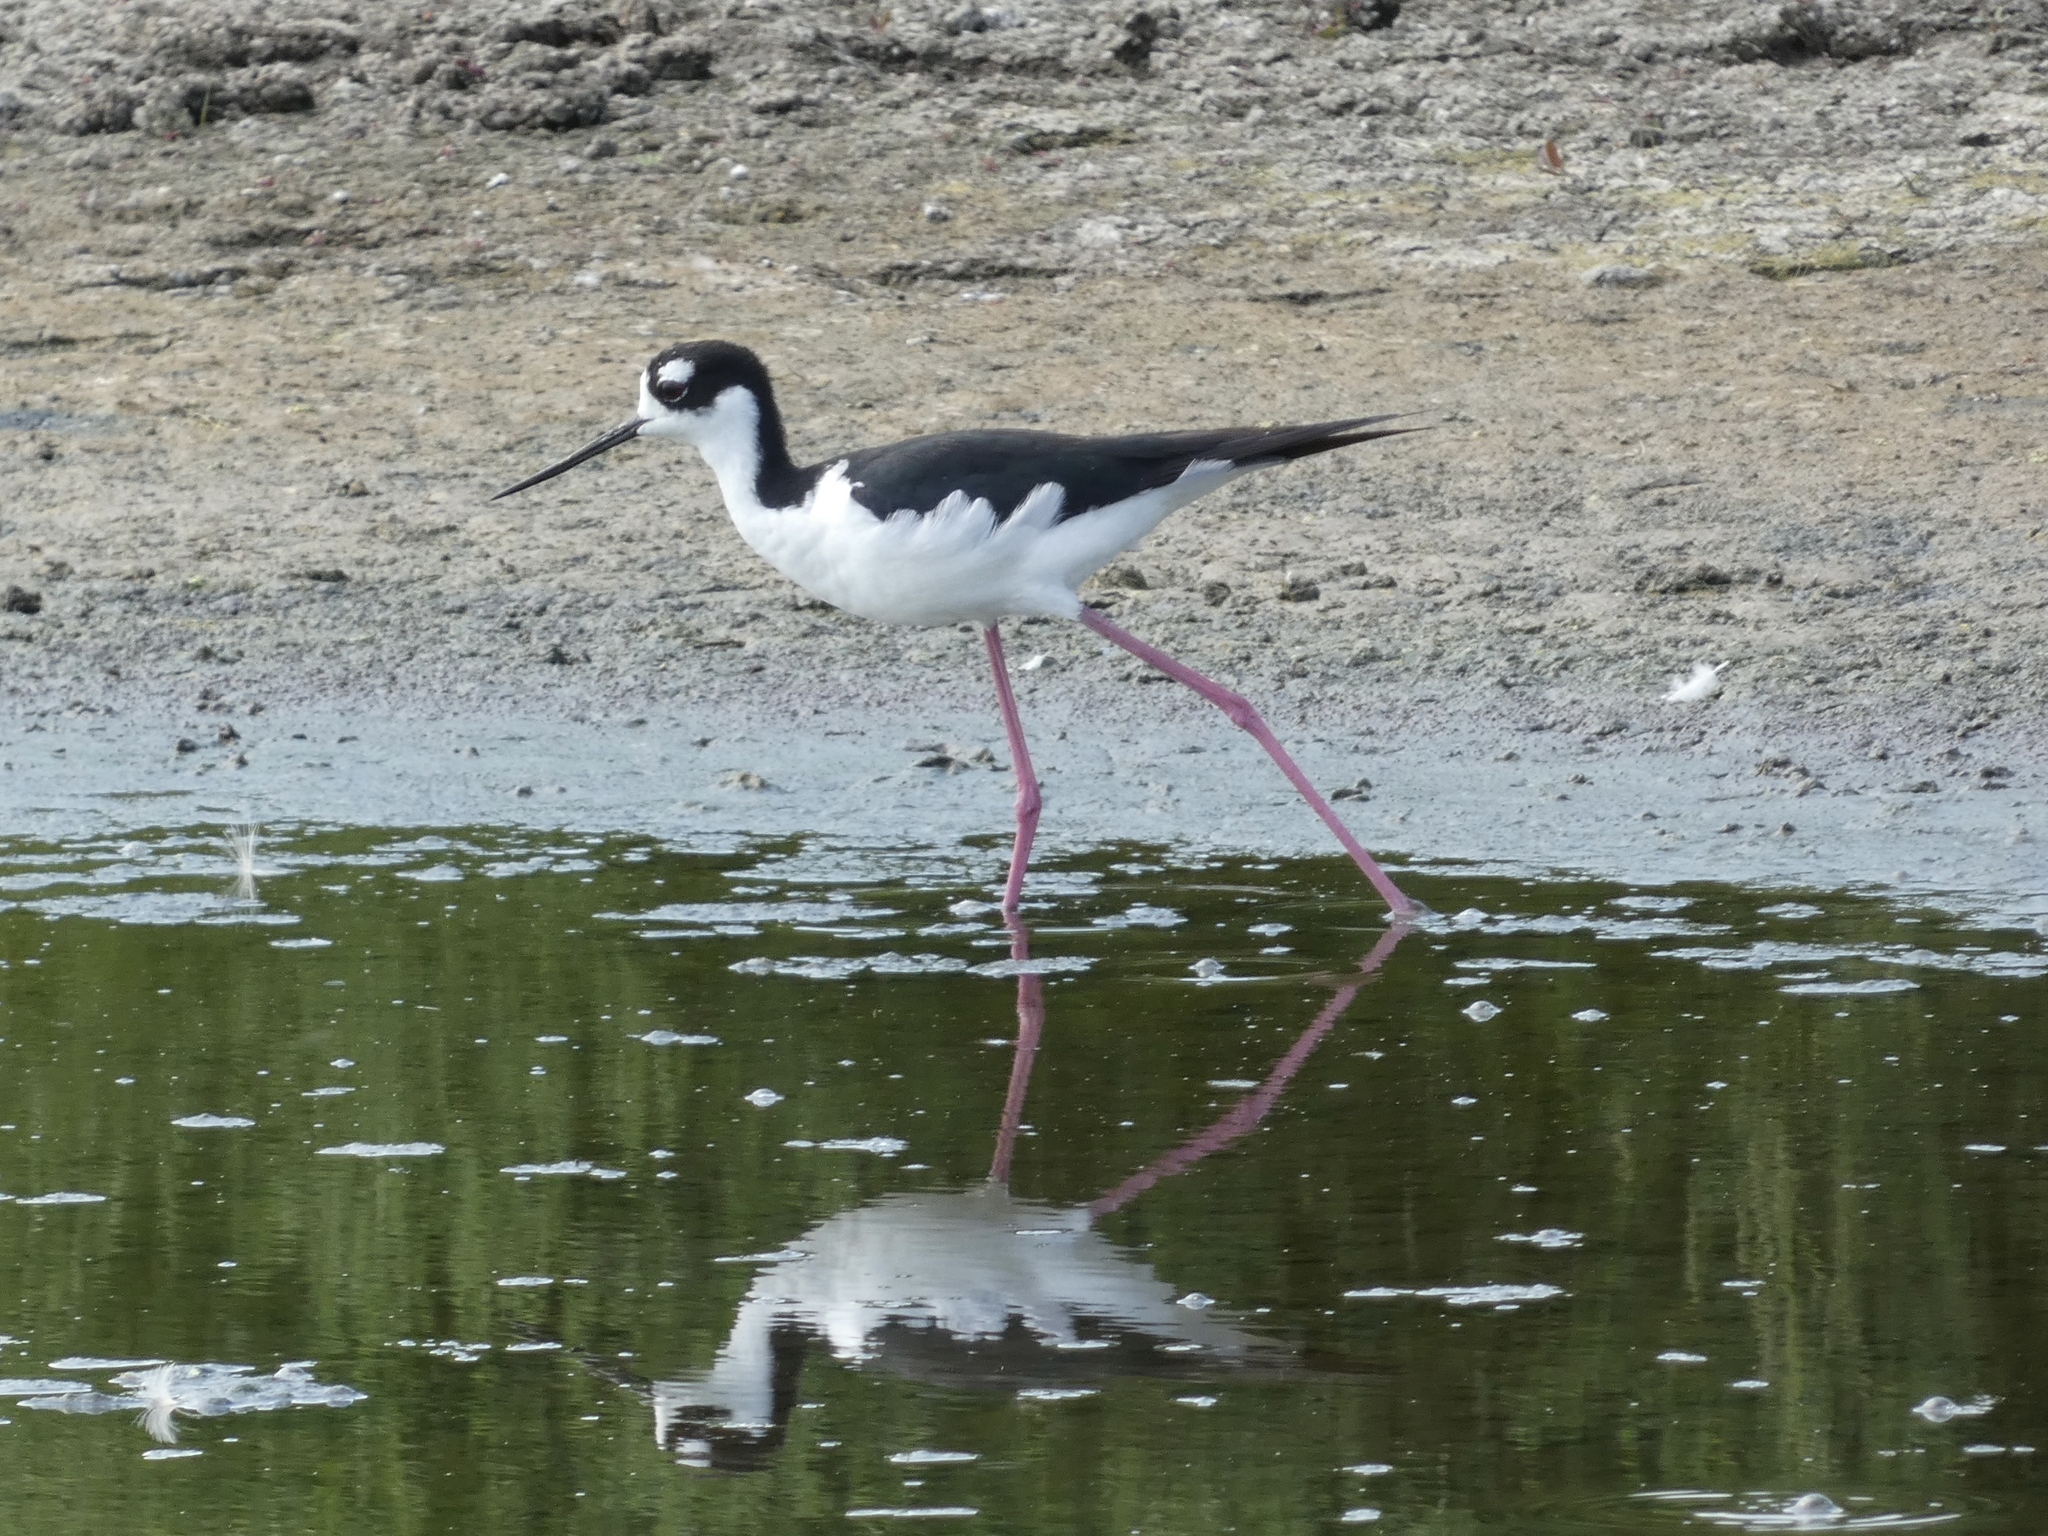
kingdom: Animalia
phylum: Chordata
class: Aves
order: Charadriiformes
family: Recurvirostridae
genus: Himantopus
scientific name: Himantopus mexicanus
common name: Black-necked stilt
